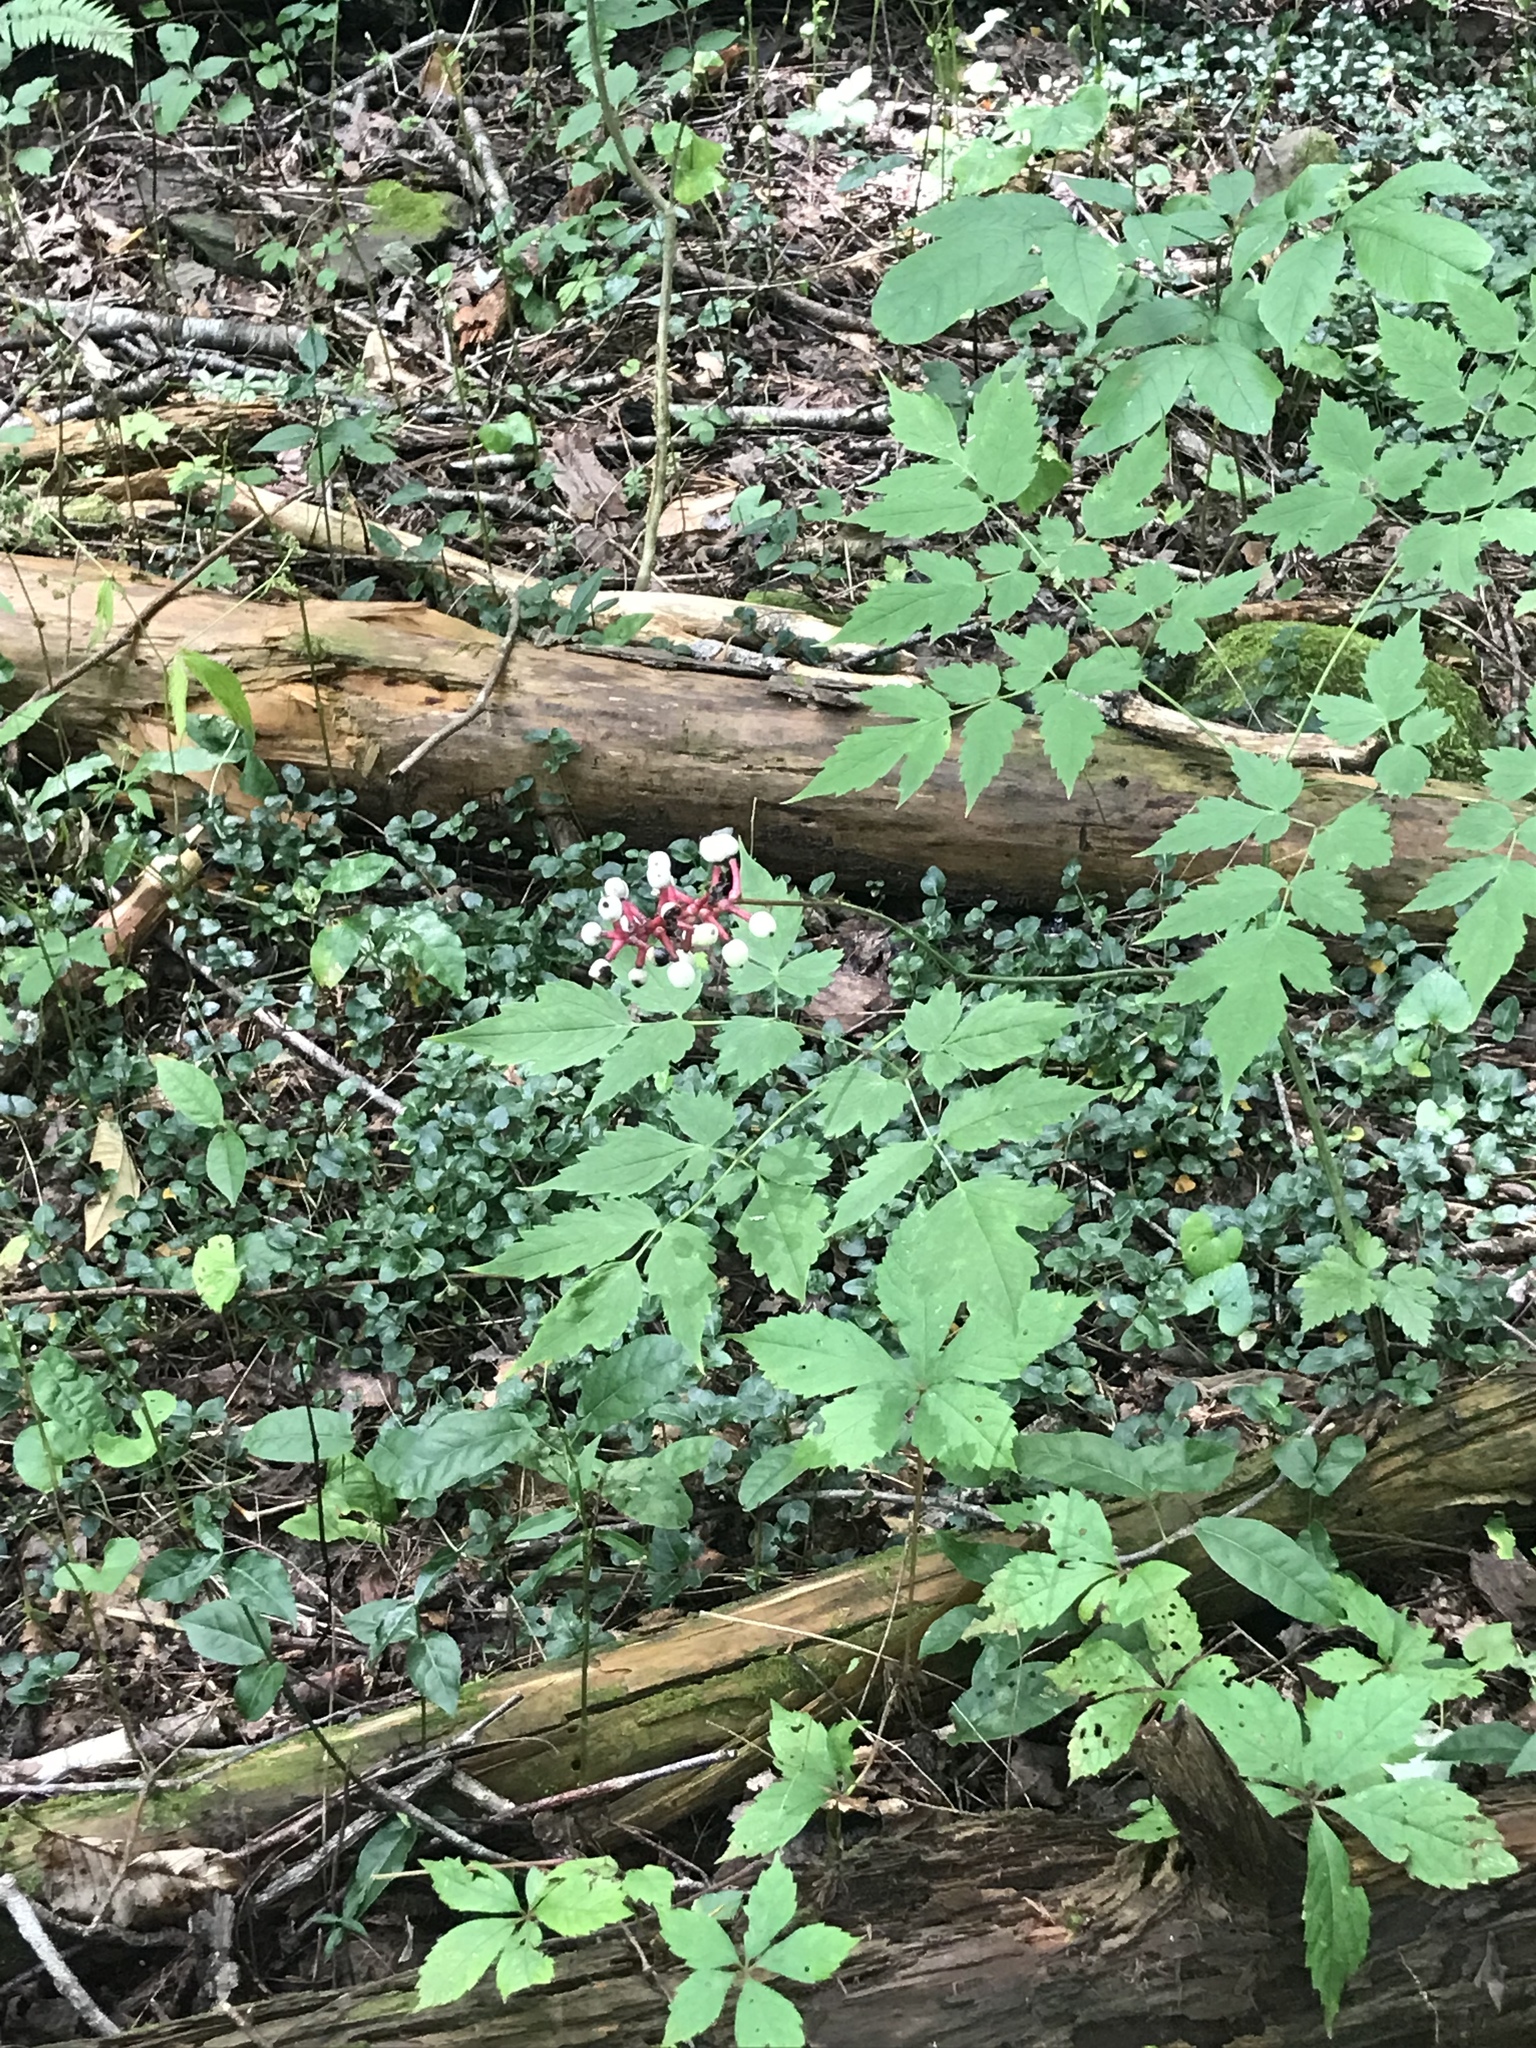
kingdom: Plantae
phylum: Tracheophyta
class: Magnoliopsida
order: Ranunculales
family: Ranunculaceae
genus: Actaea
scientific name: Actaea pachypoda
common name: Doll's-eyes
